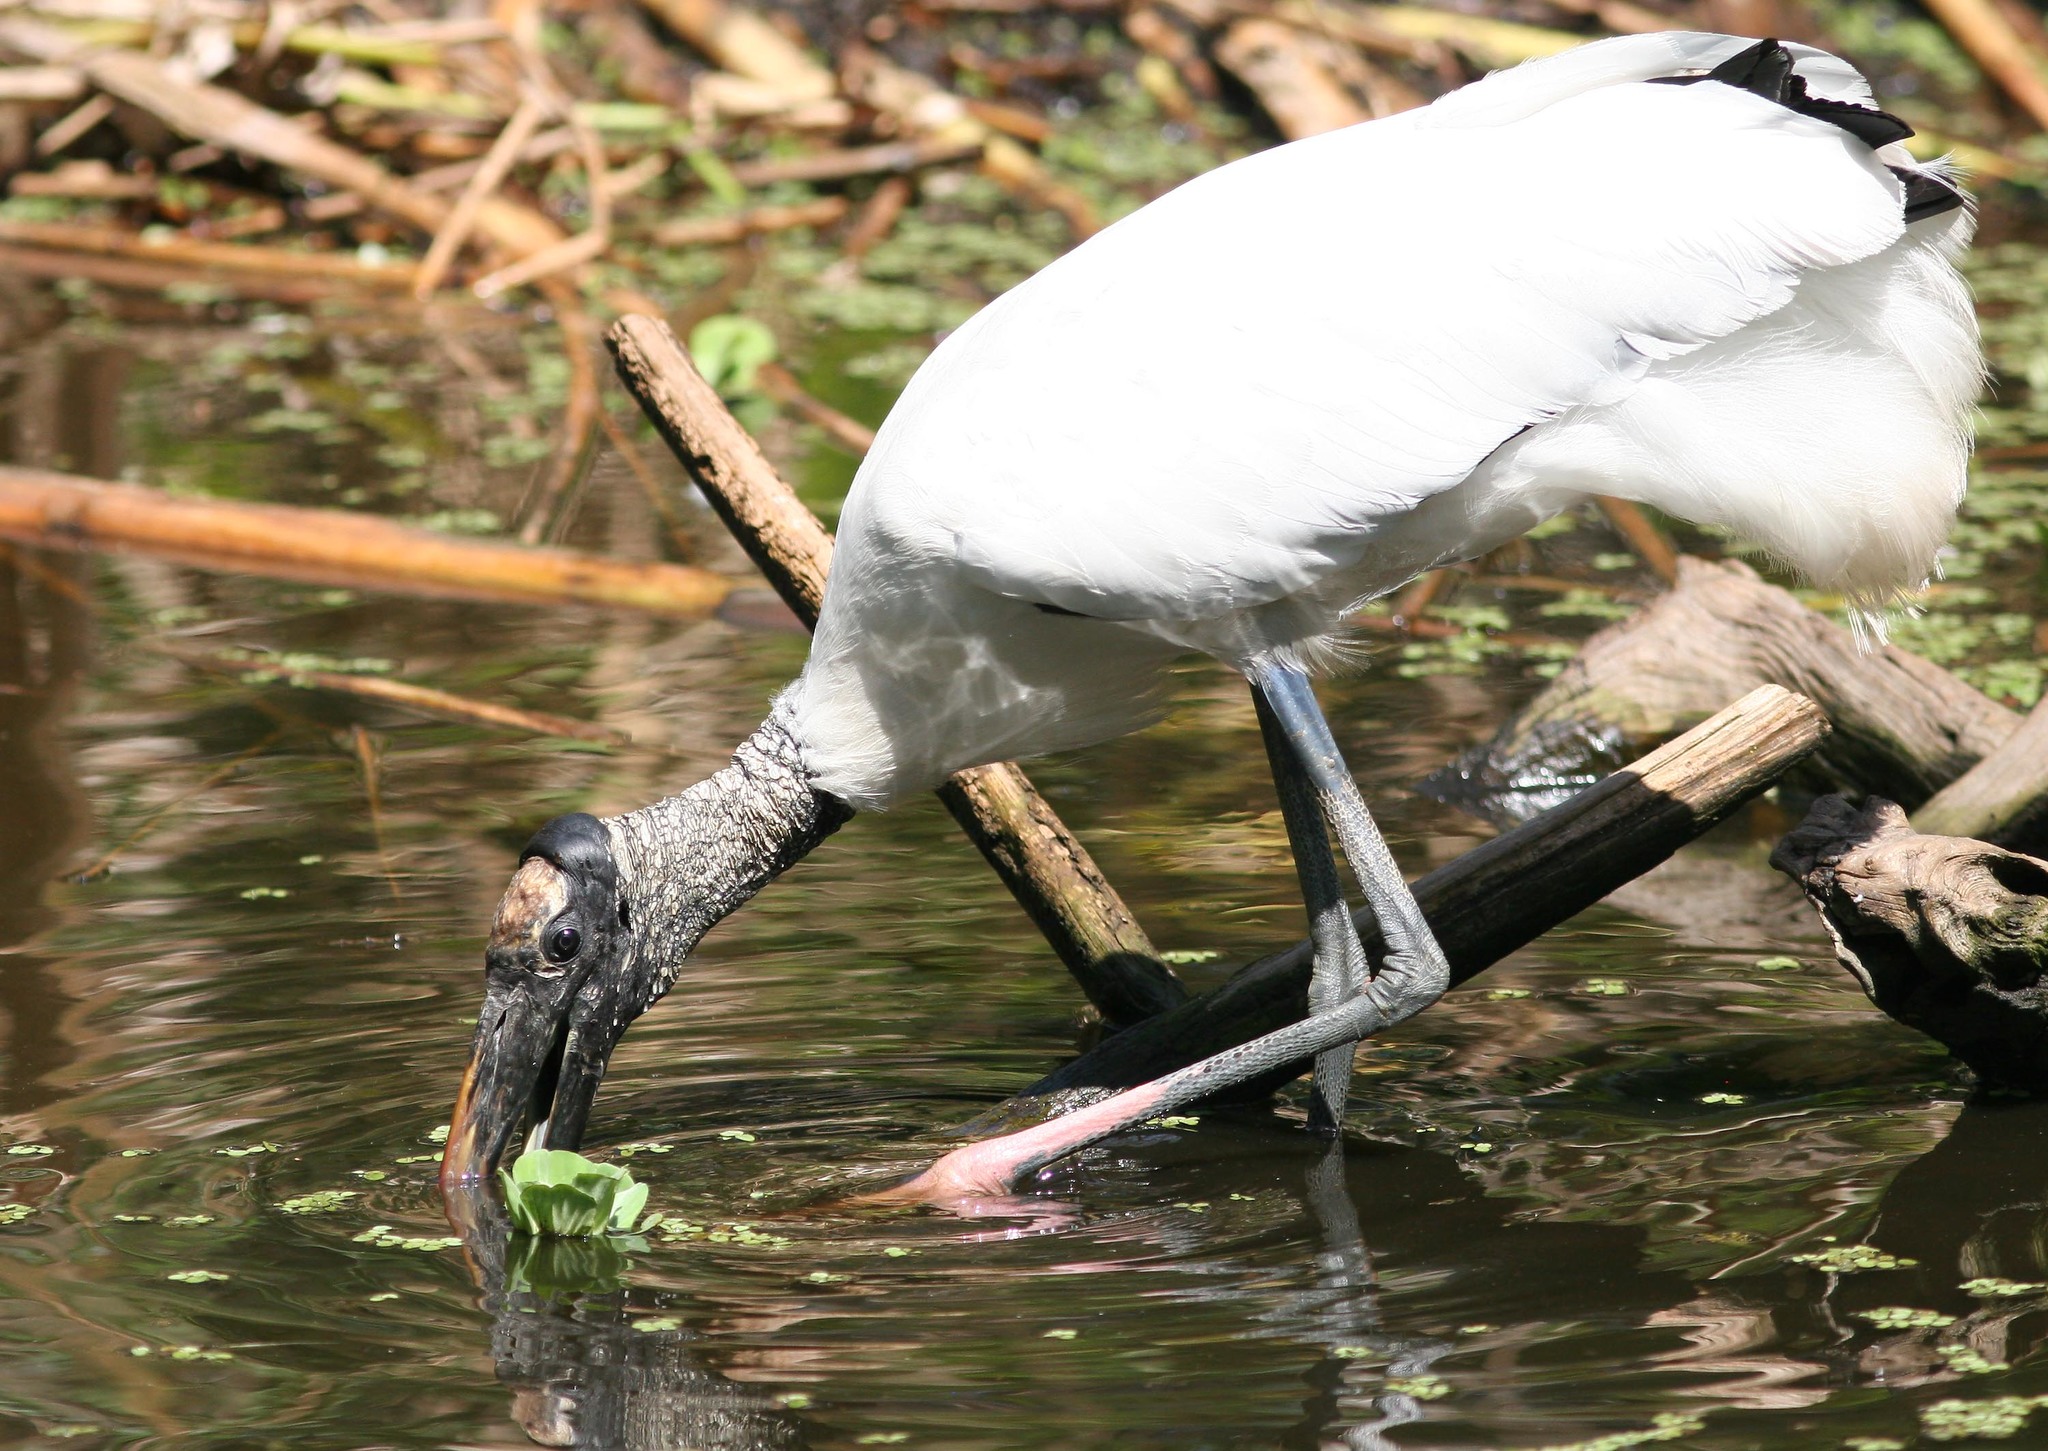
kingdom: Animalia
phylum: Chordata
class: Aves
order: Ciconiiformes
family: Ciconiidae
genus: Mycteria
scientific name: Mycteria americana
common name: Wood stork
